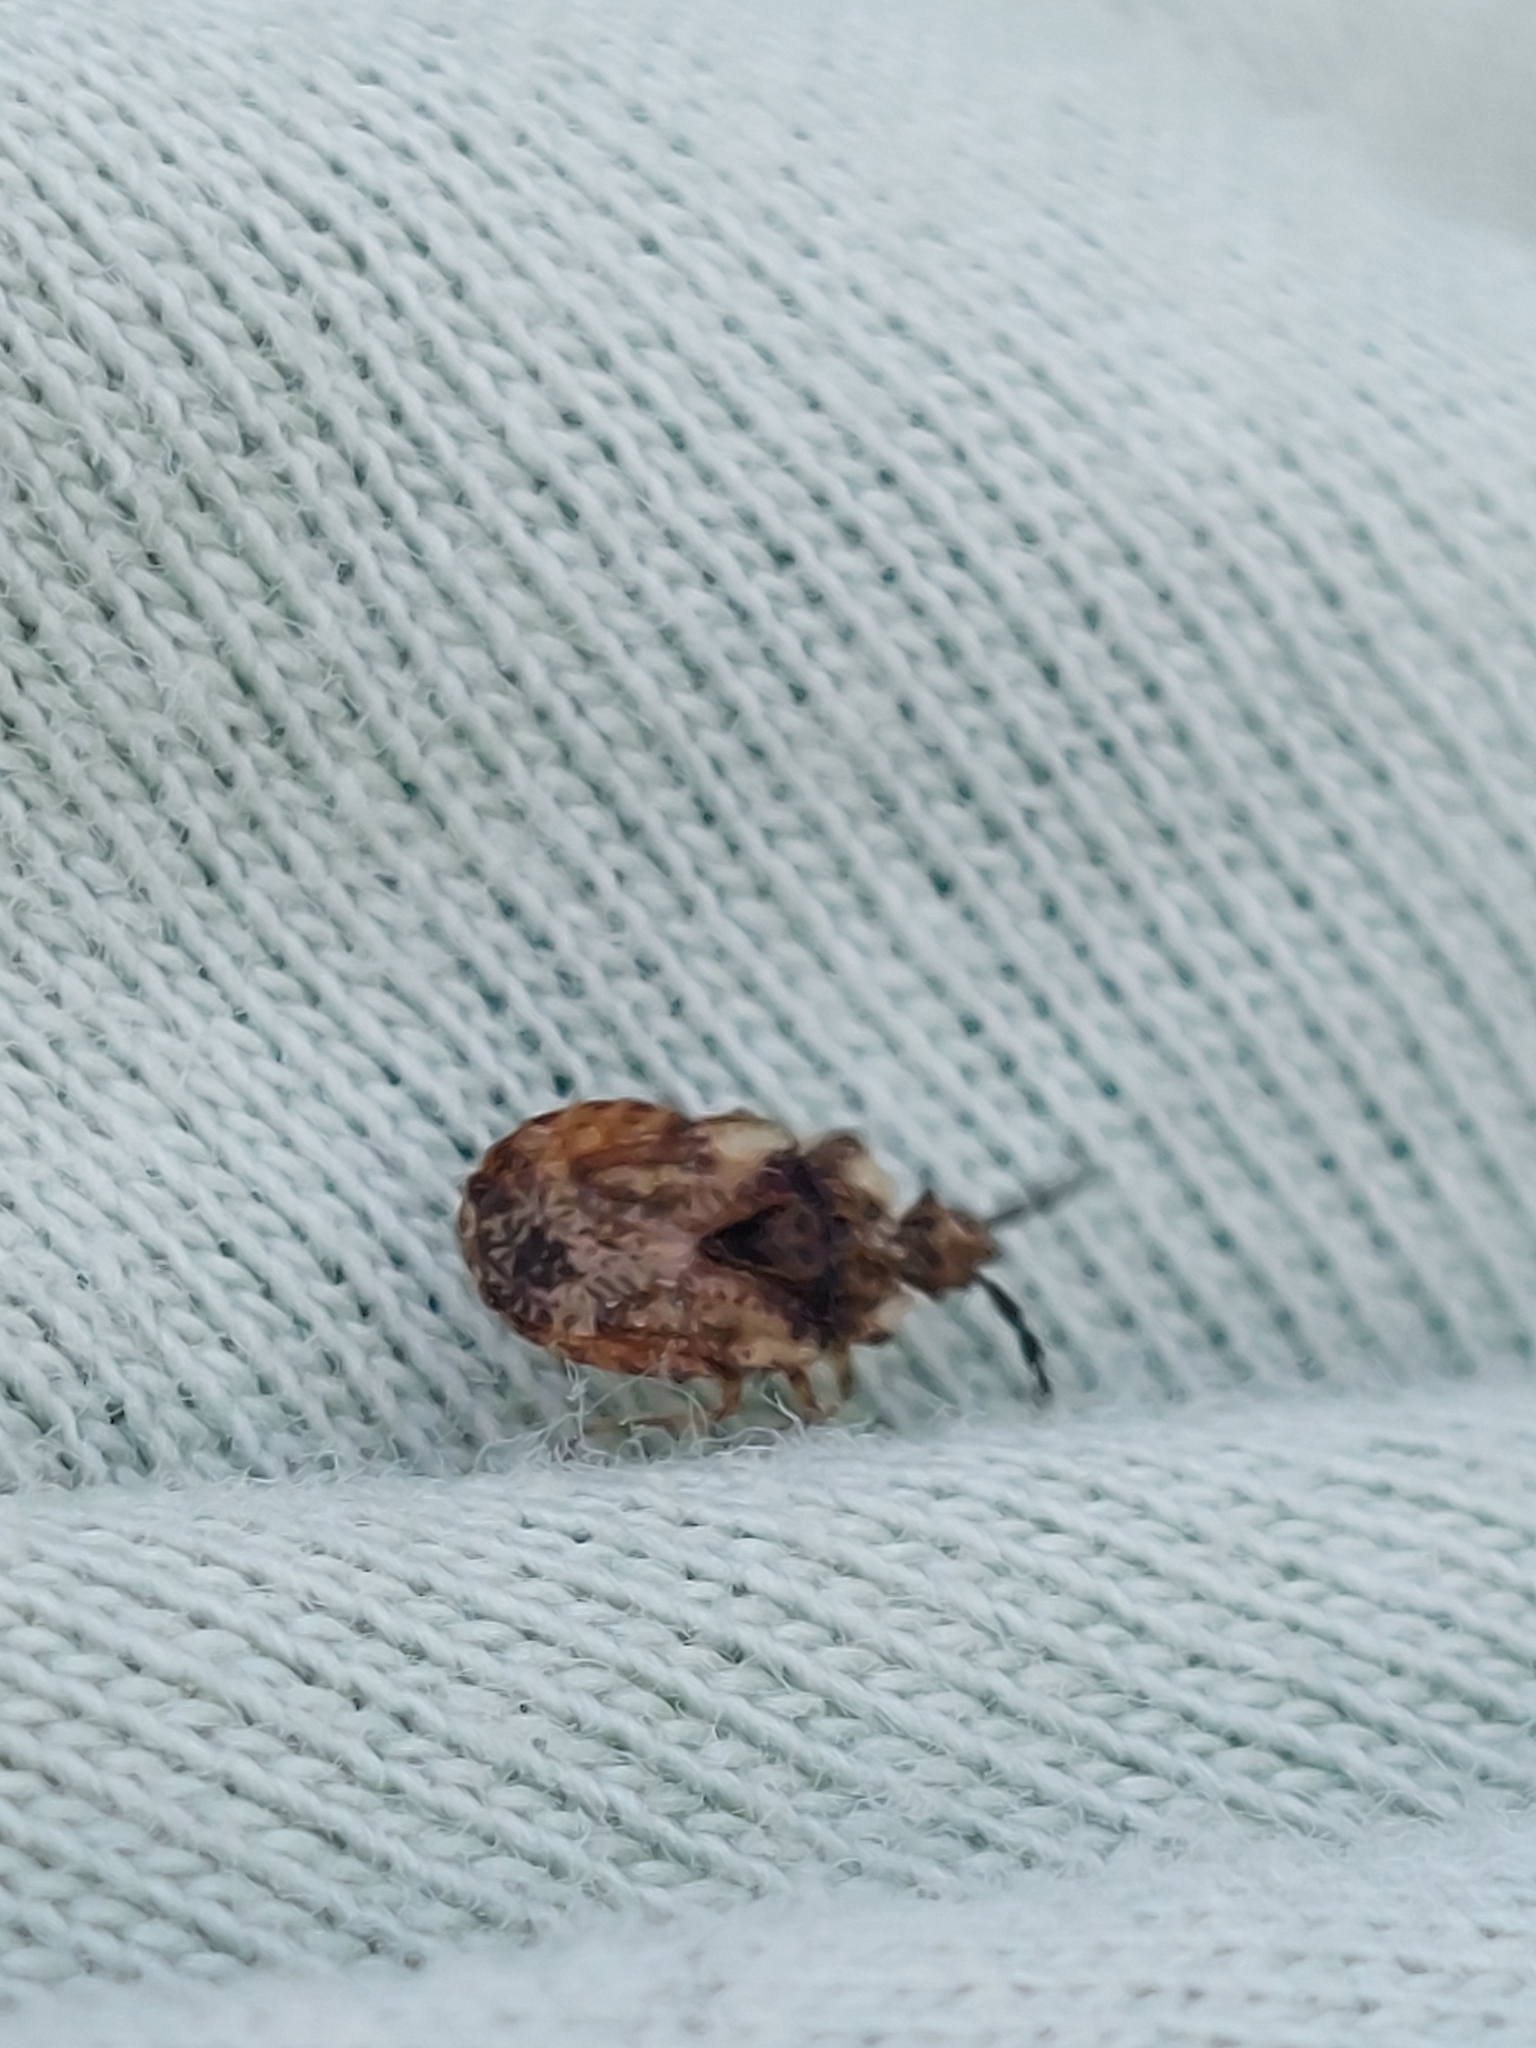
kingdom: Animalia
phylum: Arthropoda
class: Insecta
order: Hemiptera
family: Aradidae
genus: Aradus
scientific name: Aradus depressus
